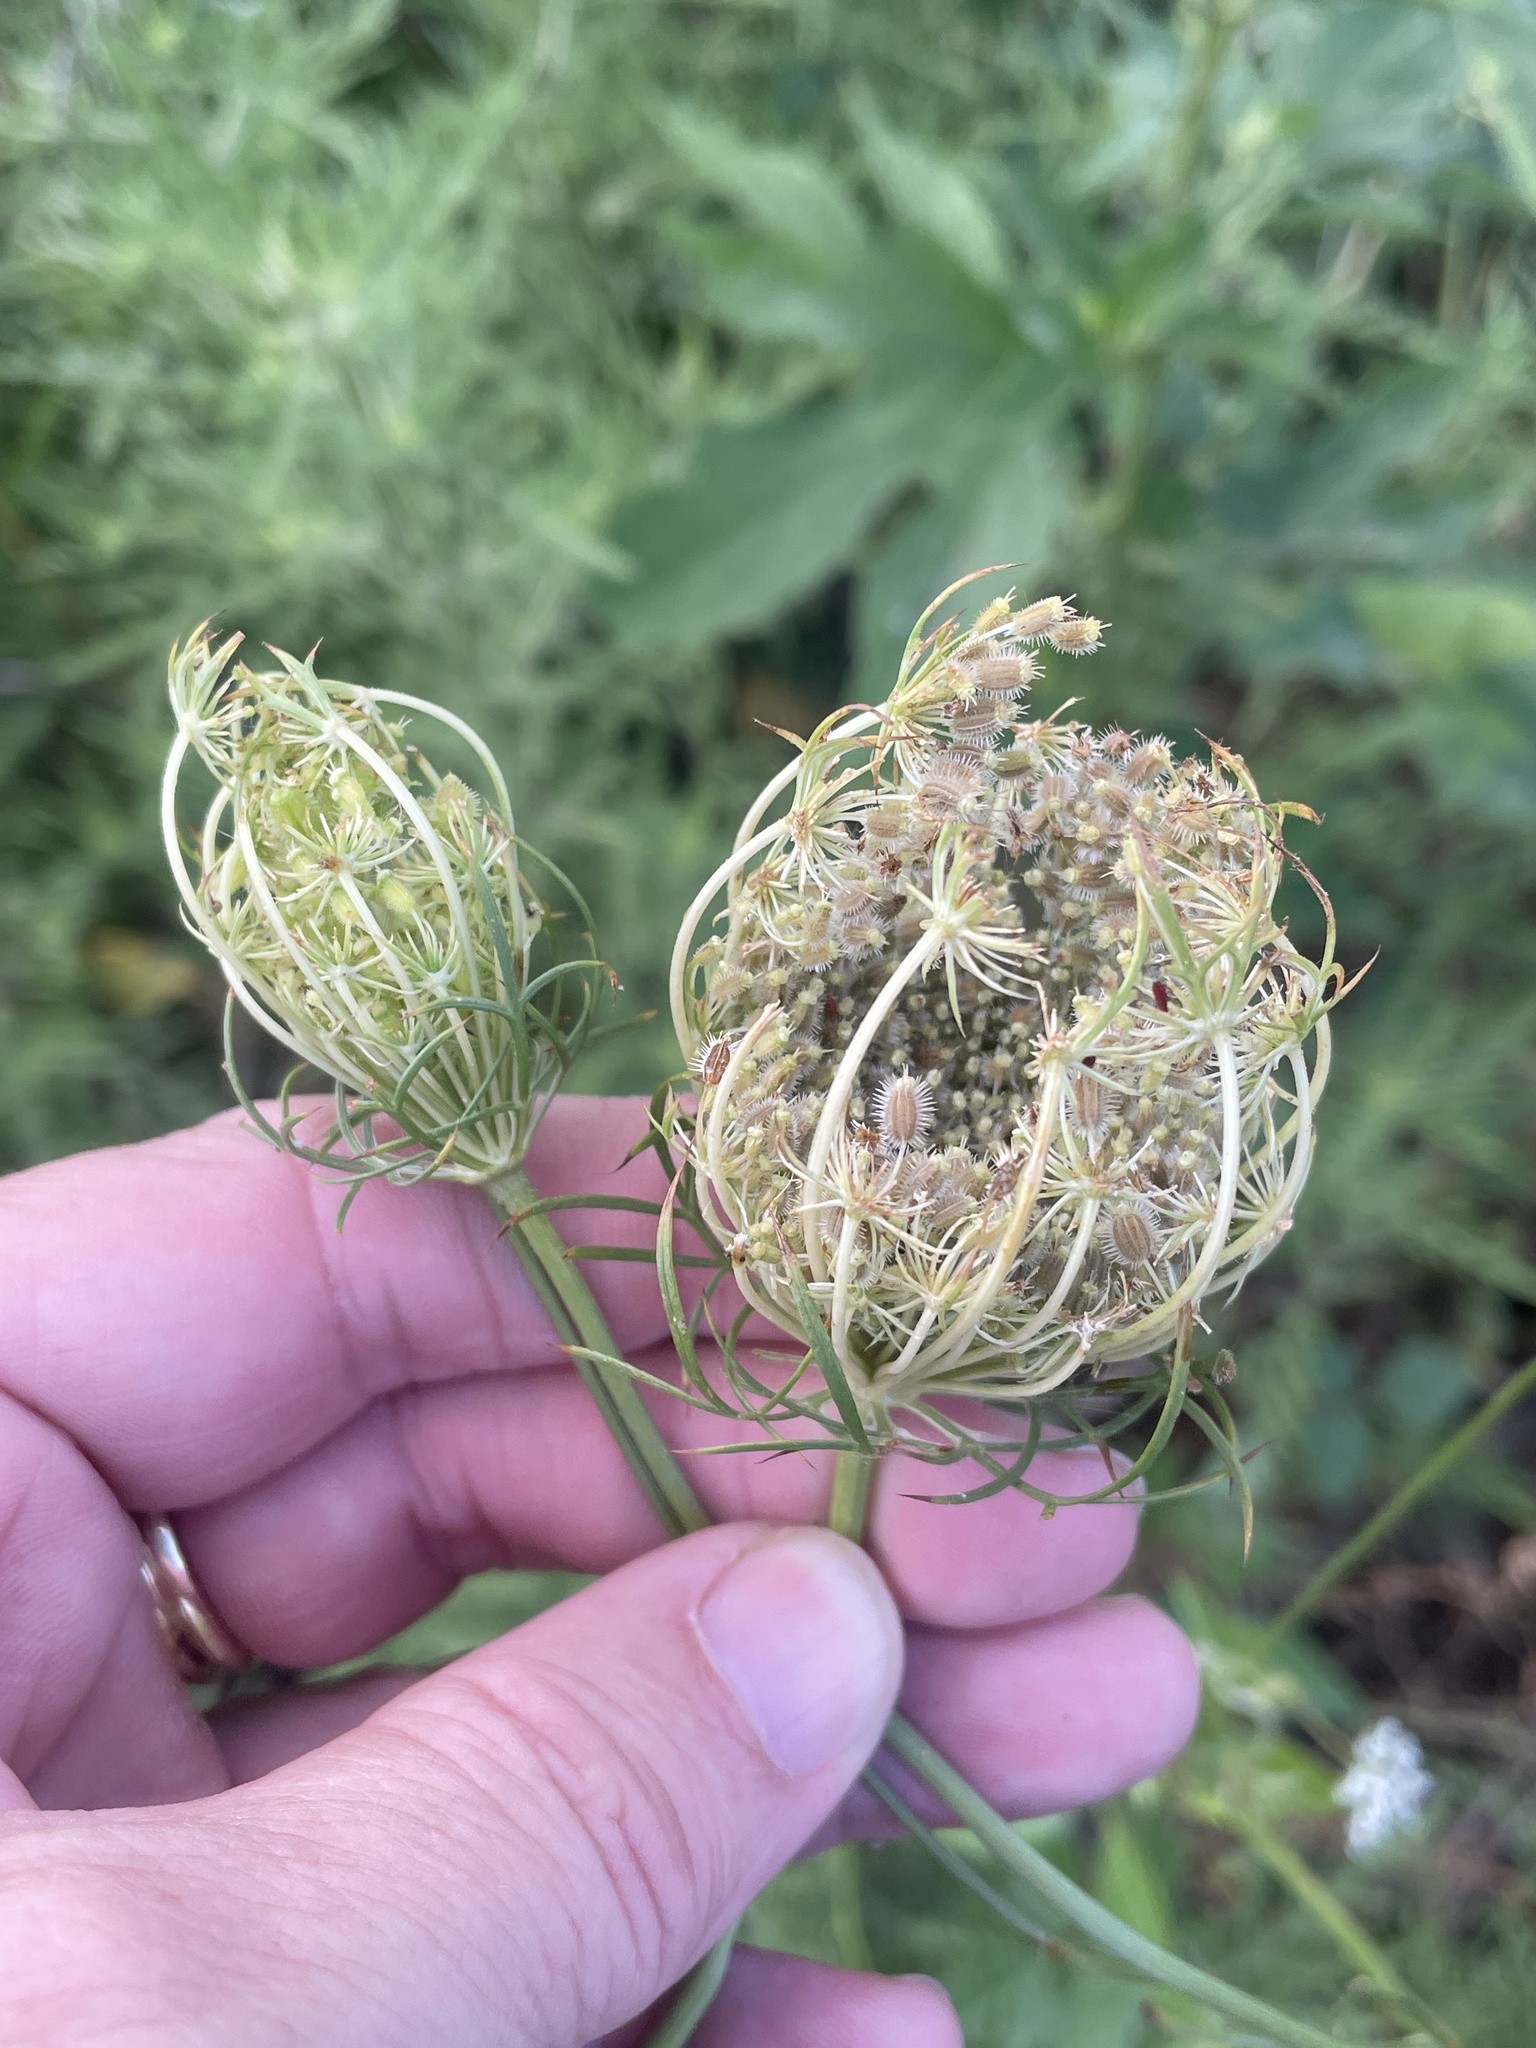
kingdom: Plantae
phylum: Tracheophyta
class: Magnoliopsida
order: Apiales
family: Apiaceae
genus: Daucus
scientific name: Daucus carota
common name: Wild carrot
